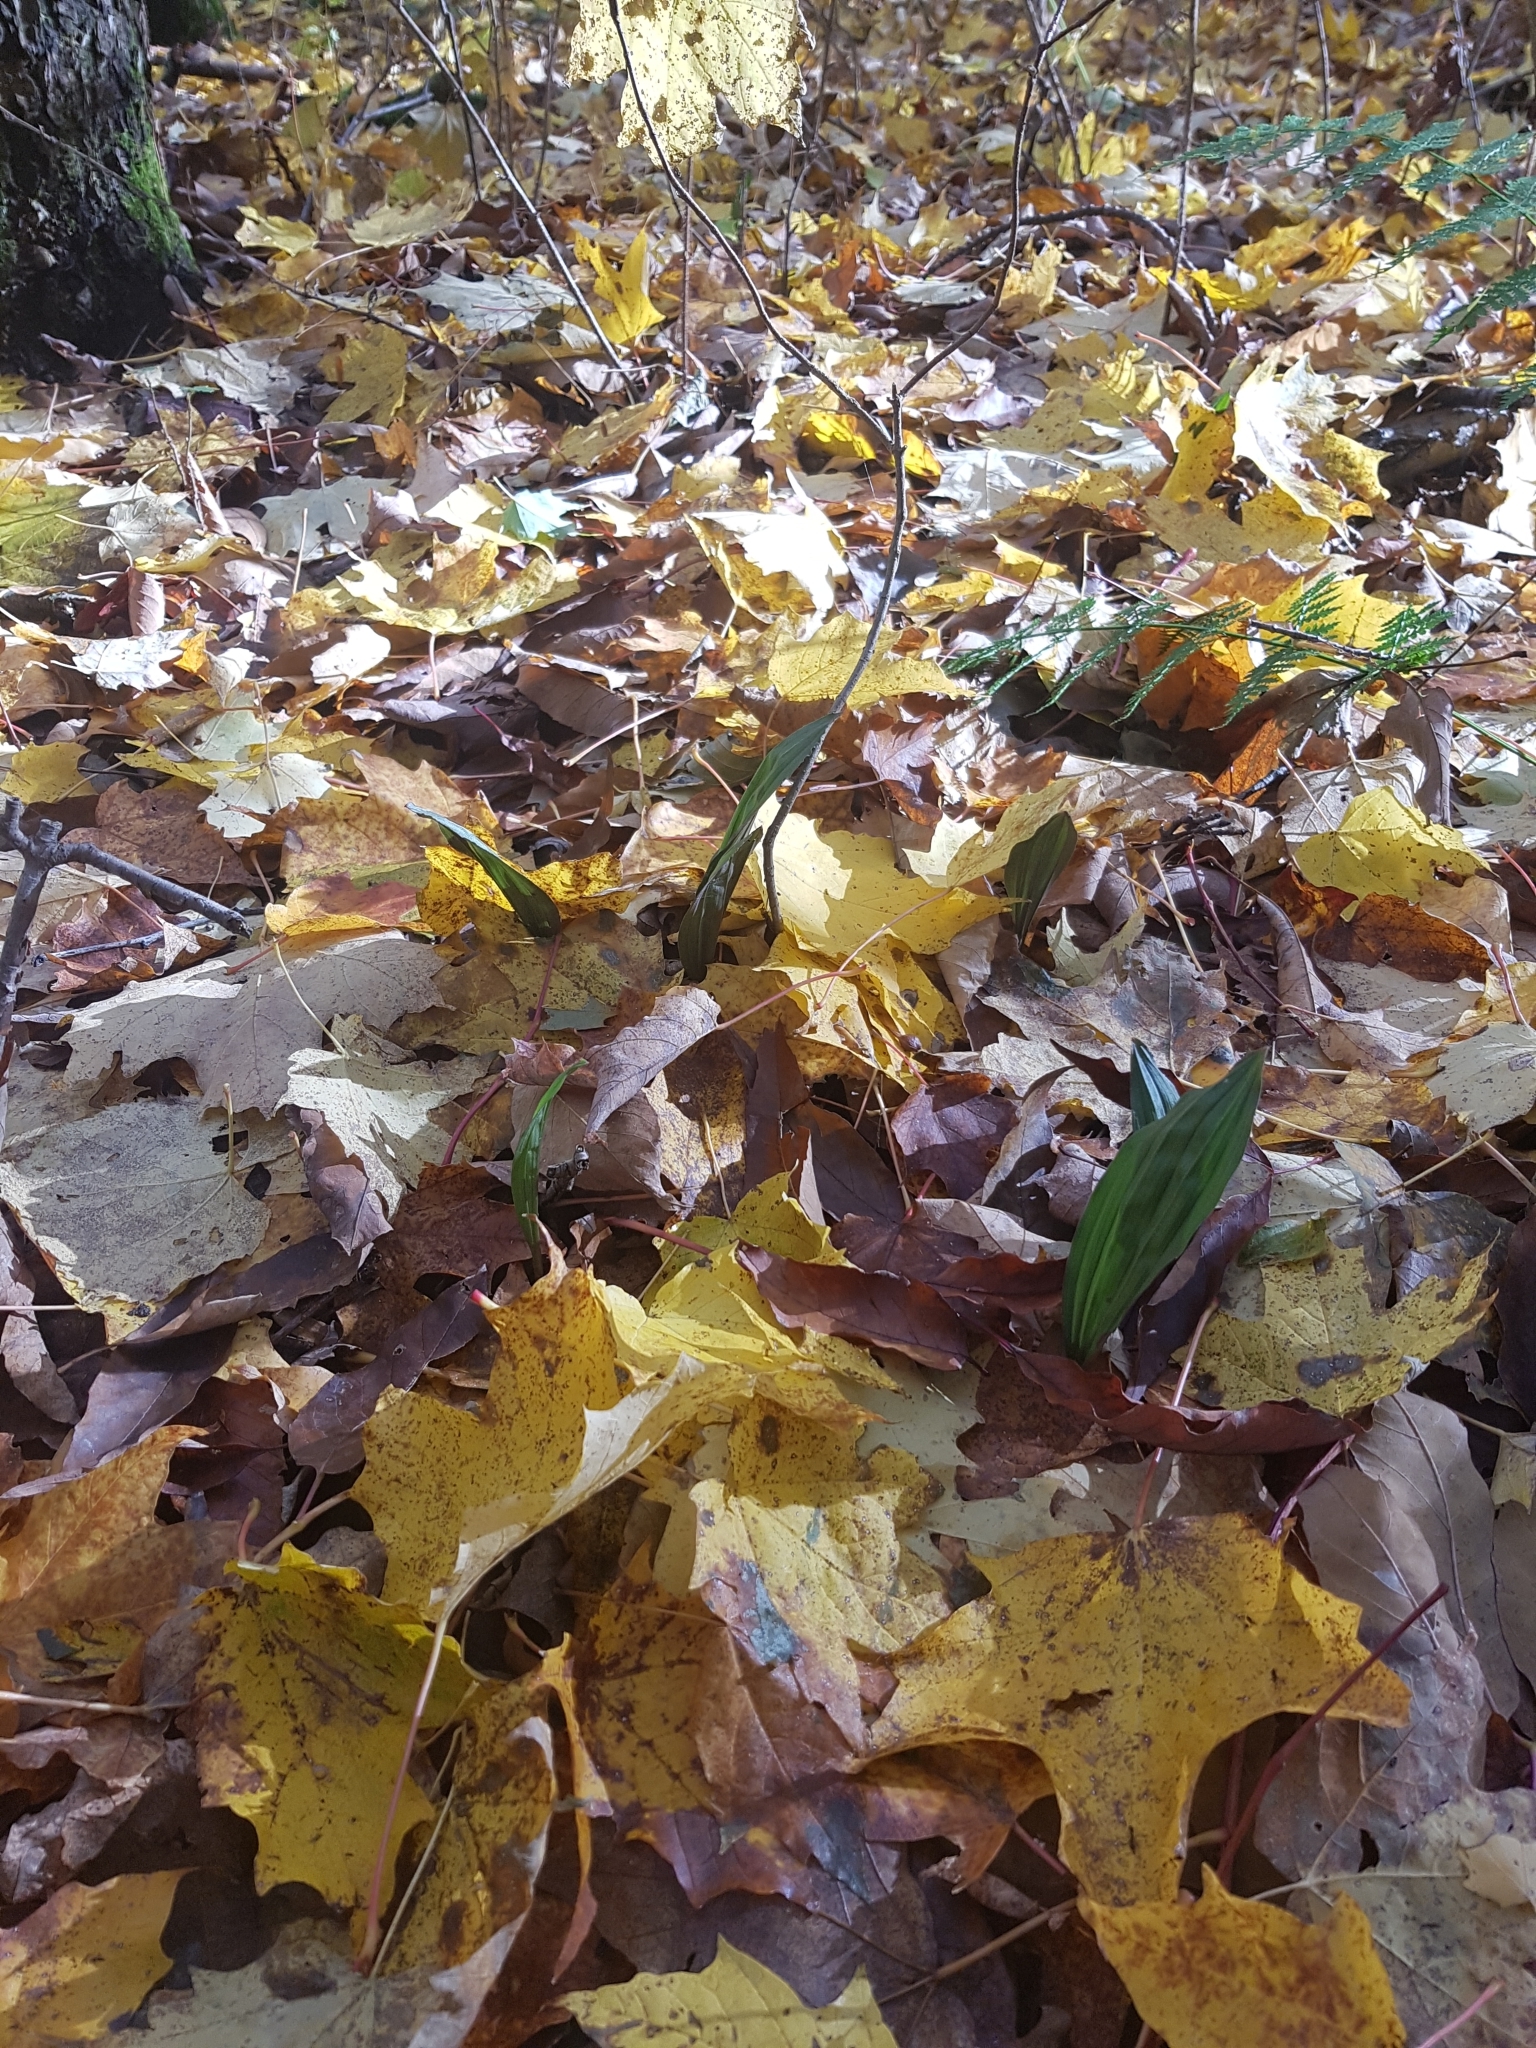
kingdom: Plantae
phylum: Tracheophyta
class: Liliopsida
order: Asparagales
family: Orchidaceae
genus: Aplectrum
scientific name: Aplectrum hyemale
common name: Adam-and-eve
